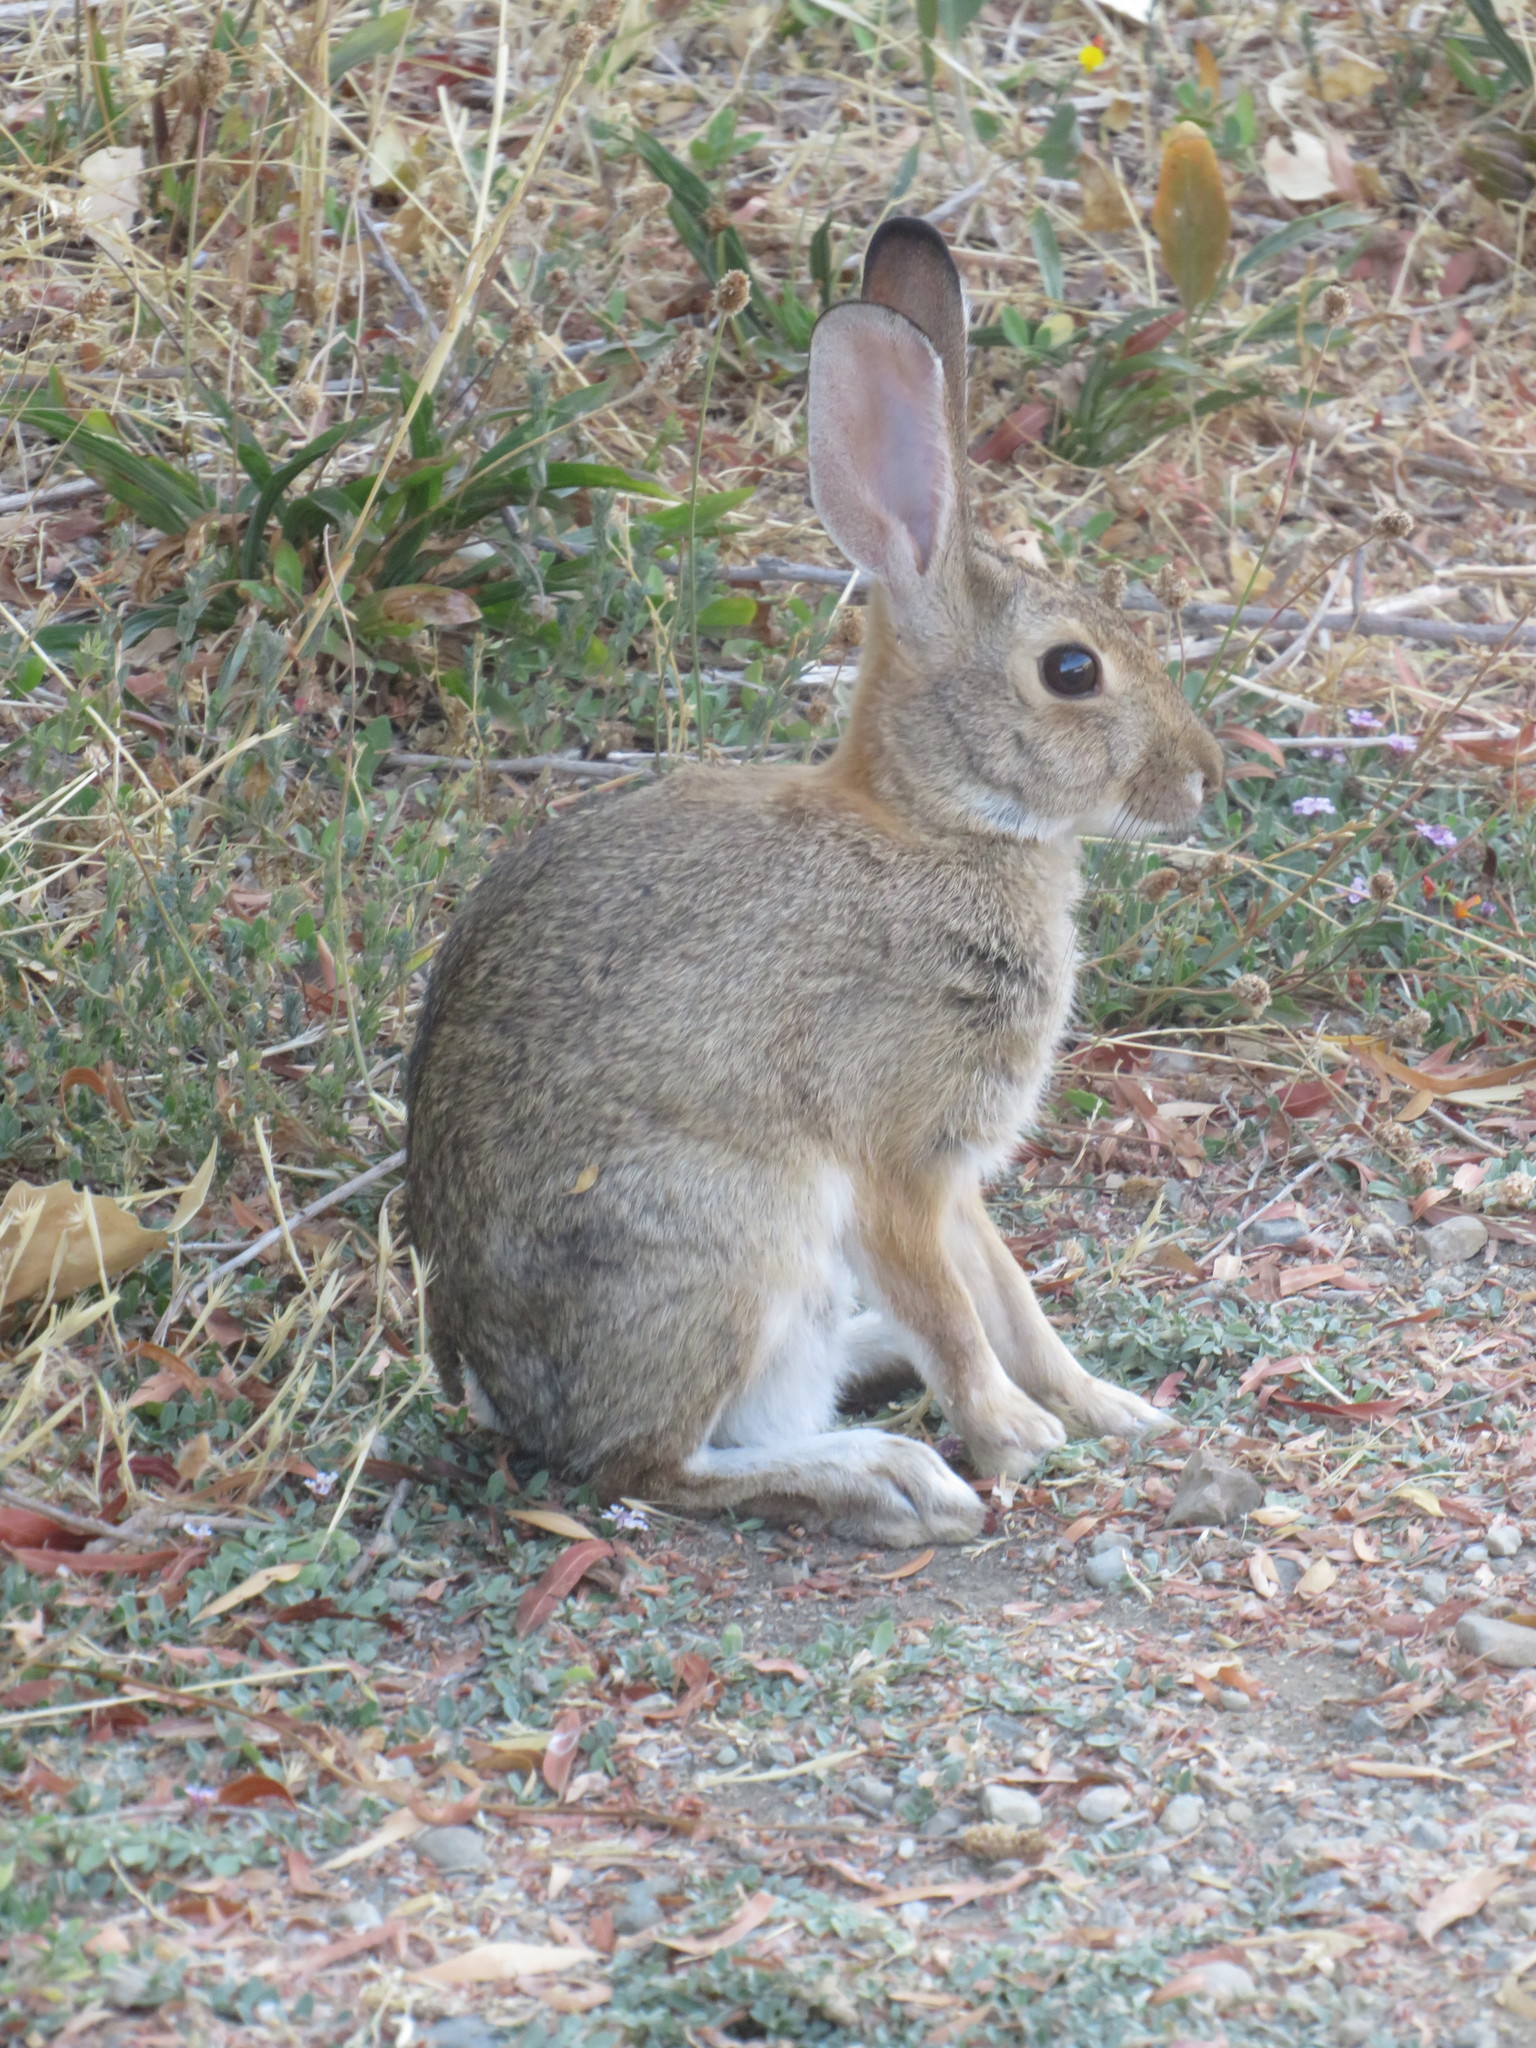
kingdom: Animalia
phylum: Chordata
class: Mammalia
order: Lagomorpha
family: Leporidae
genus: Sylvilagus
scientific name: Sylvilagus audubonii
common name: Desert cottontail
